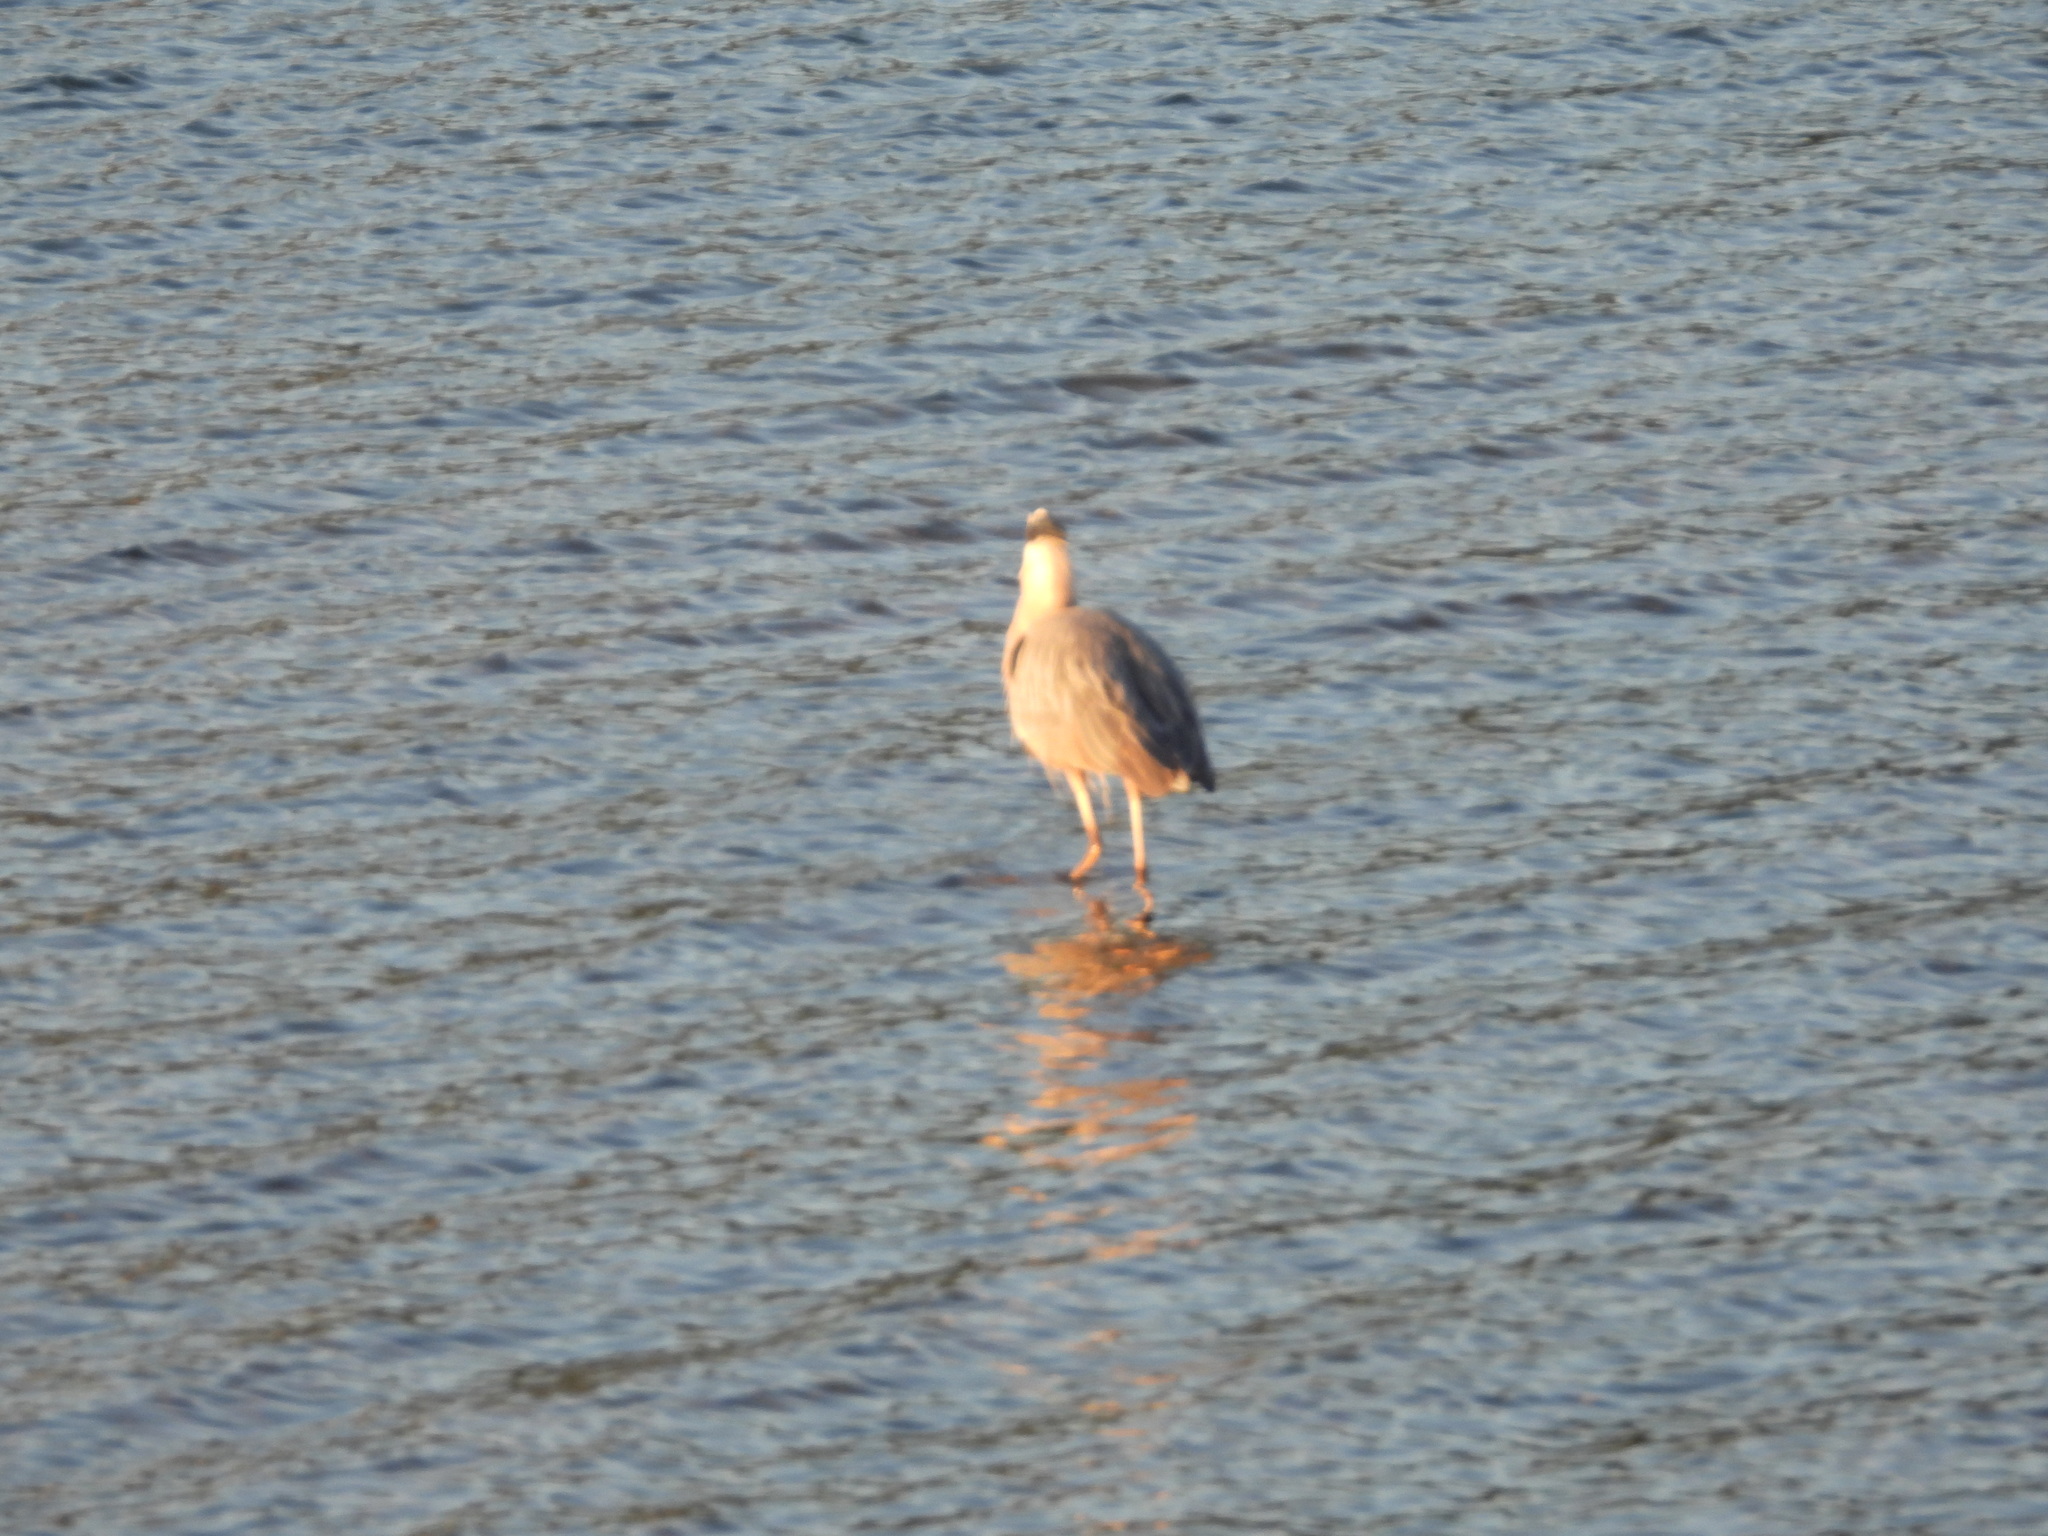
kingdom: Animalia
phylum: Chordata
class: Aves
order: Pelecaniformes
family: Ardeidae
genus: Ardea
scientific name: Ardea herodias
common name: Great blue heron
